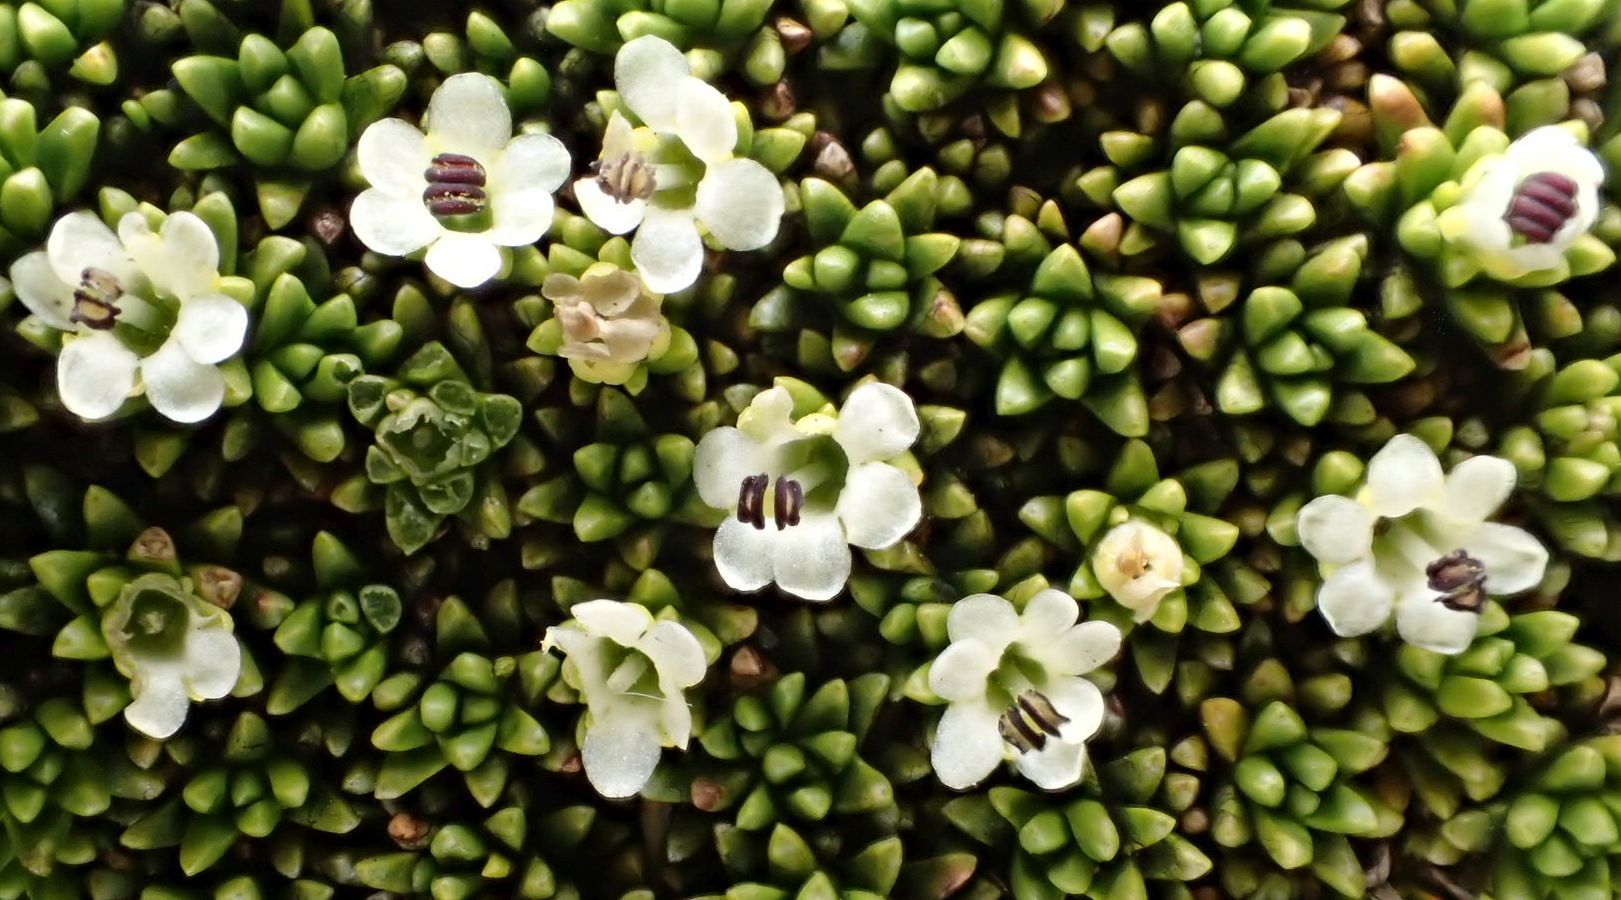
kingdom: Plantae
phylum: Tracheophyta
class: Magnoliopsida
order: Asterales
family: Stylidiaceae
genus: Phyllachne
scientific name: Phyllachne colensoi
